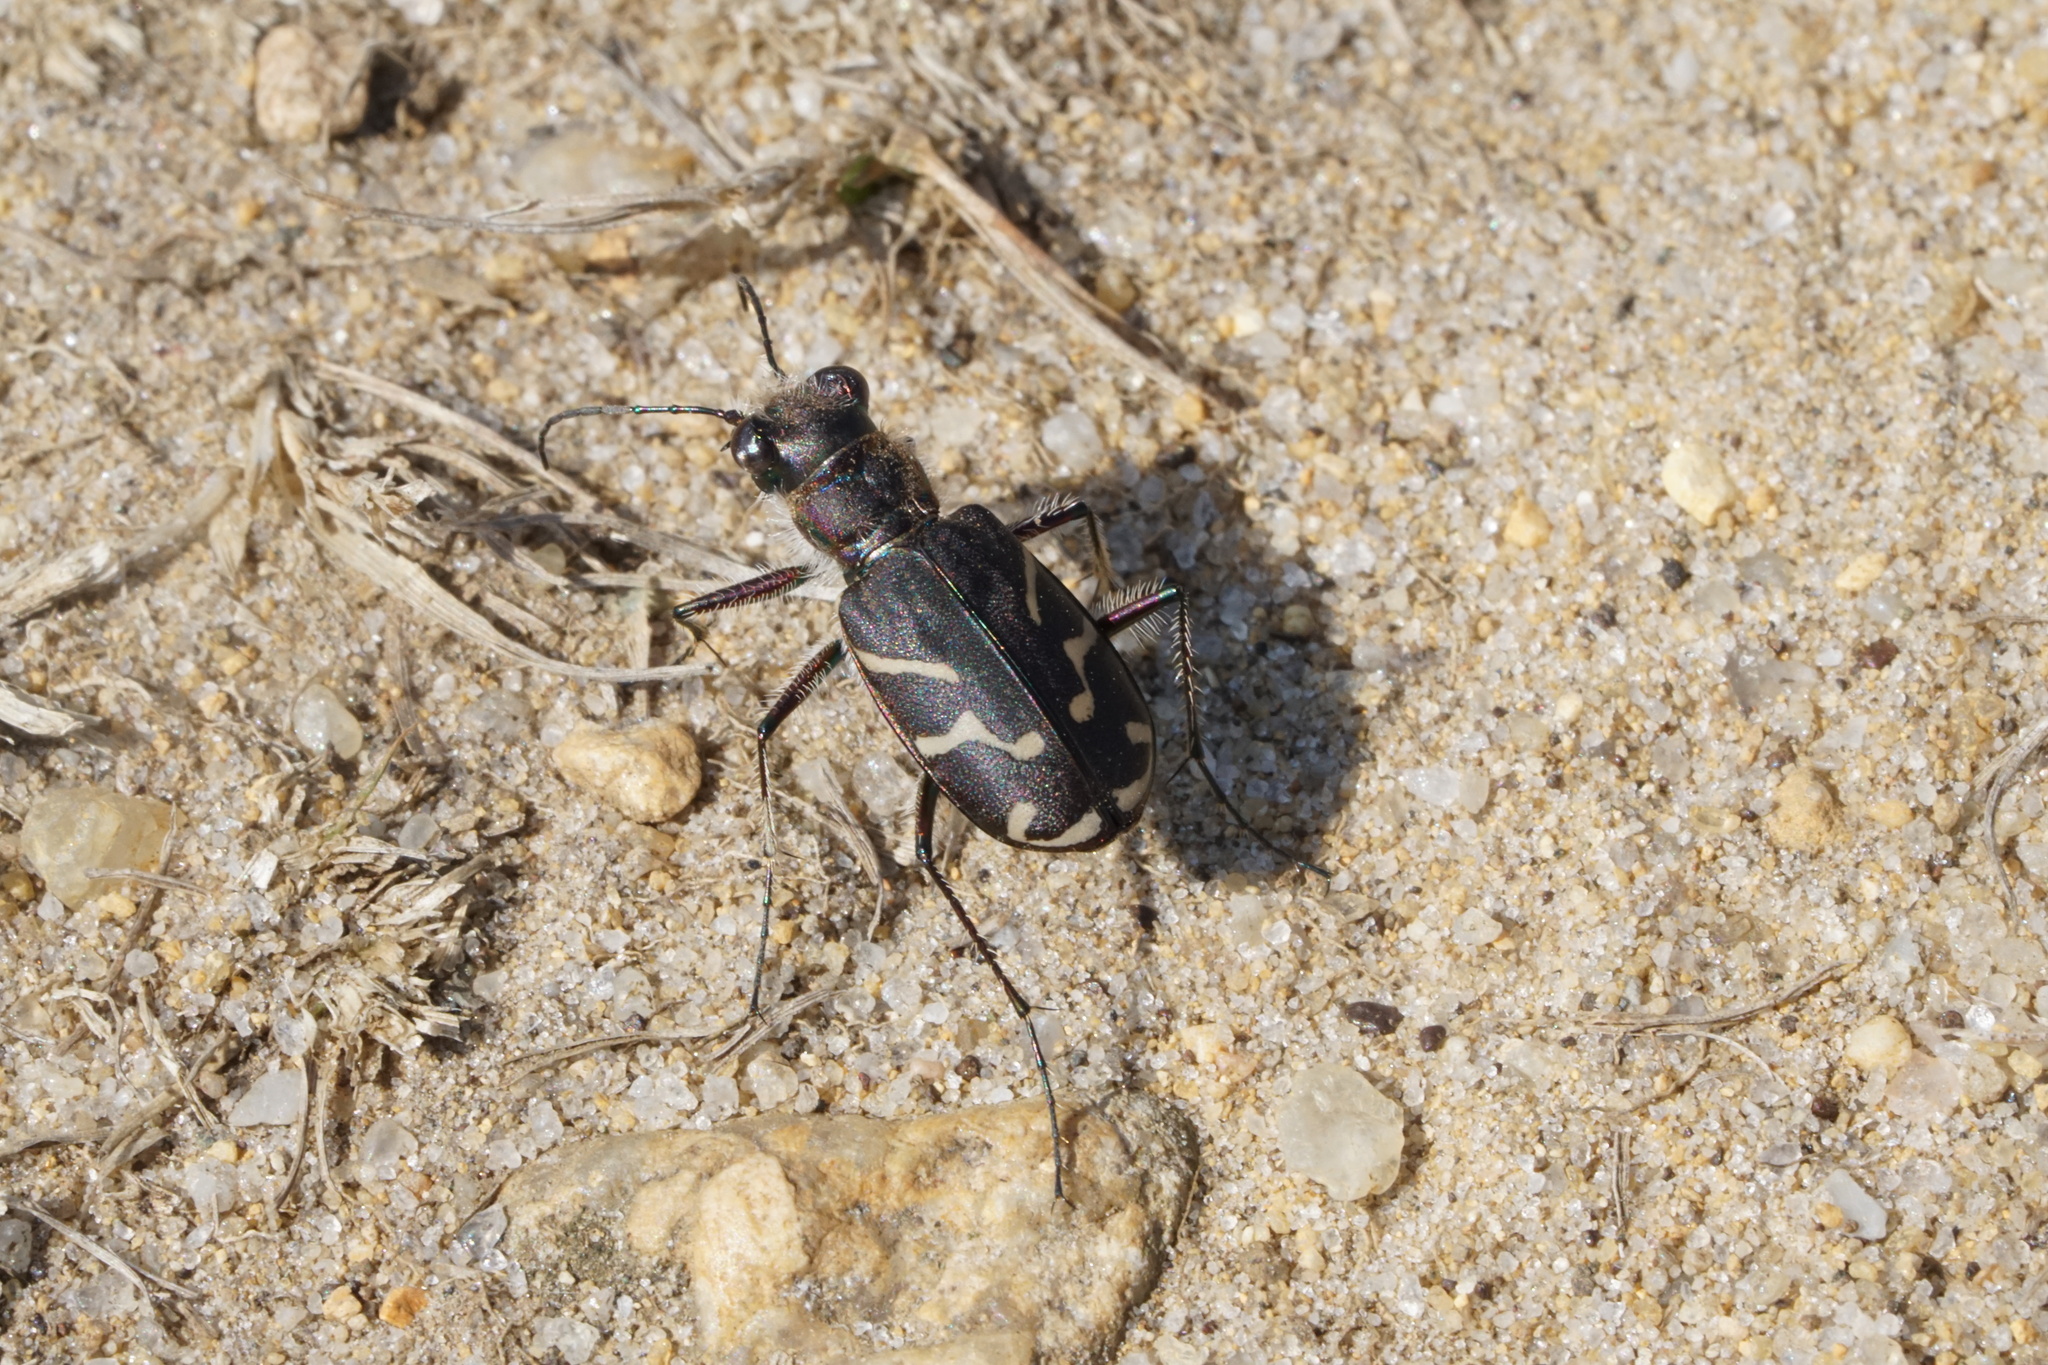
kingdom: Animalia
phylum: Arthropoda
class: Insecta
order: Coleoptera
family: Carabidae
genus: Cicindela
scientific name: Cicindela tranquebarica
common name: Oblique-lined tiger beetle
